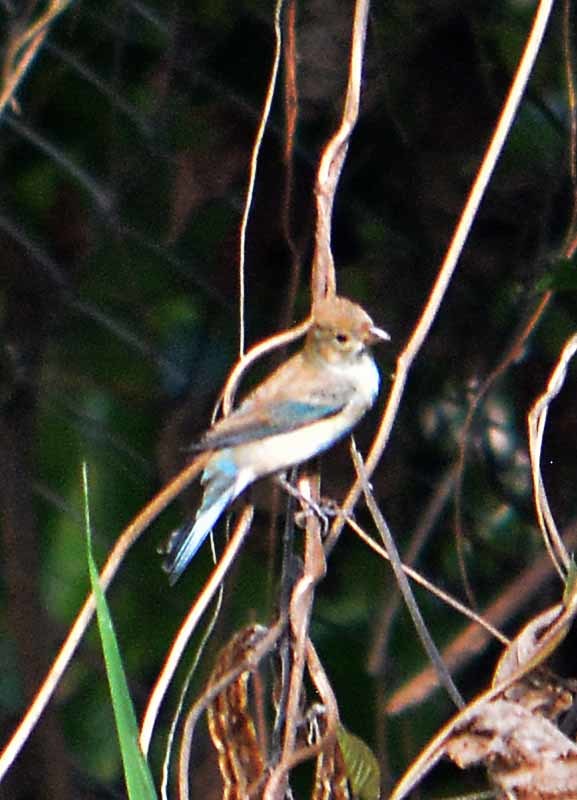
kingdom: Animalia
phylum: Chordata
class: Aves
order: Passeriformes
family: Cardinalidae
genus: Passerina
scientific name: Passerina cyanea
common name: Indigo bunting
